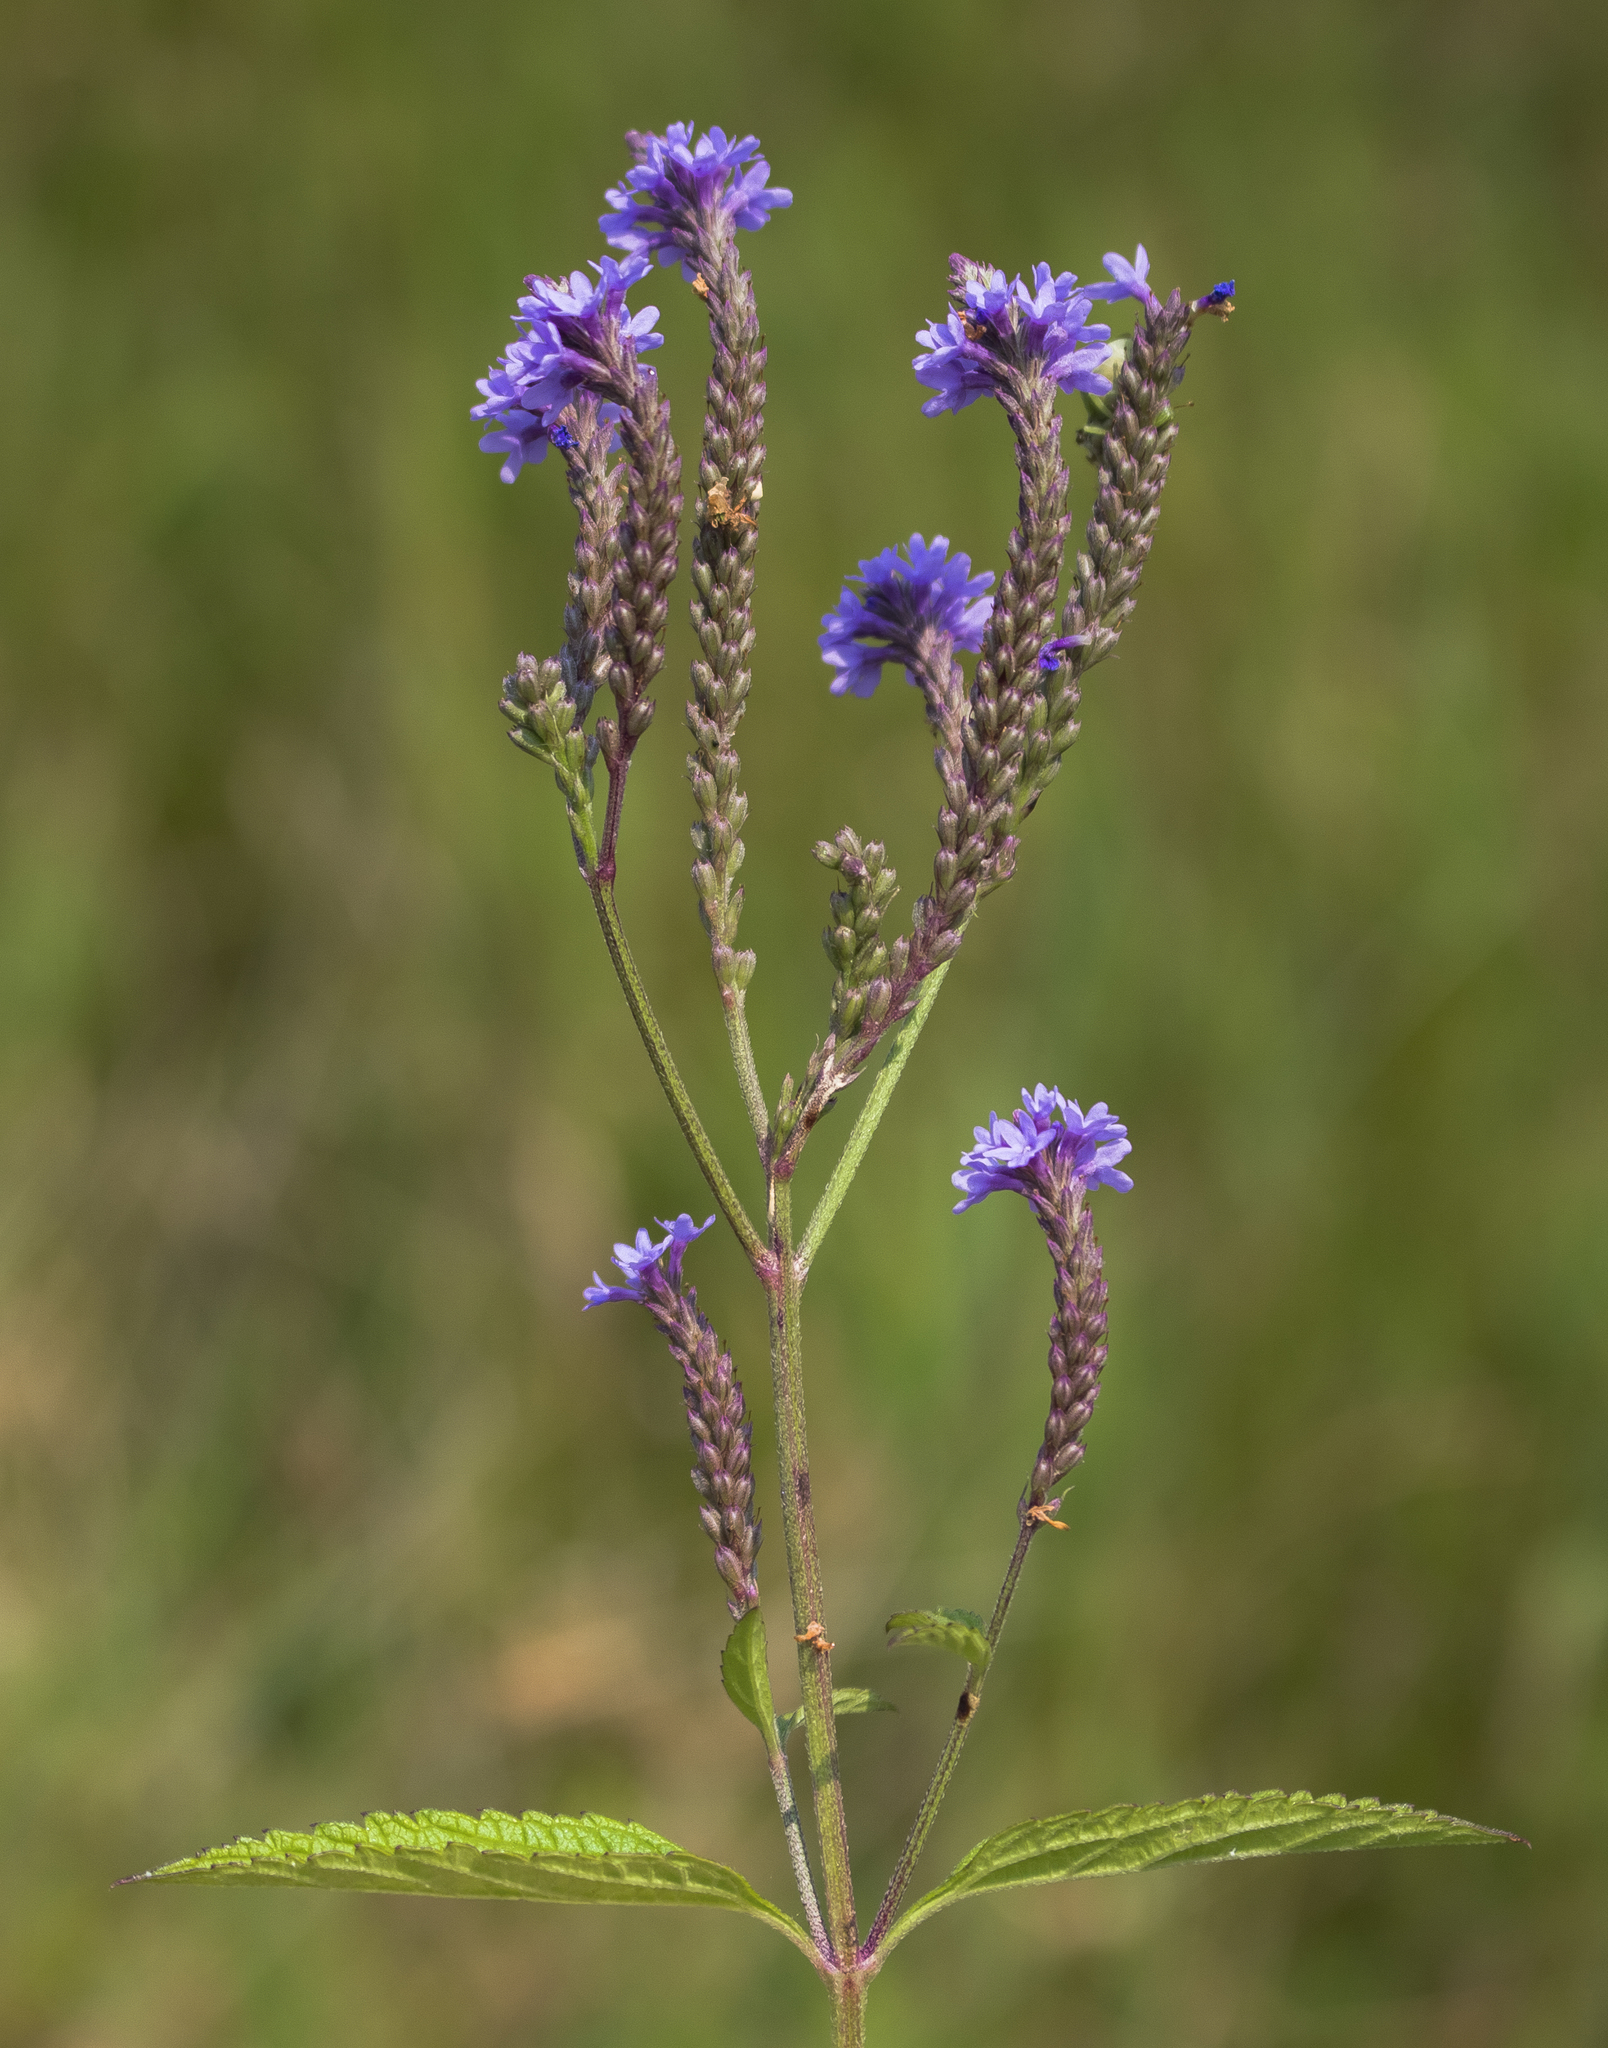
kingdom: Plantae
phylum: Tracheophyta
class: Magnoliopsida
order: Lamiales
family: Verbenaceae
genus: Verbena
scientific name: Verbena hastata
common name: American blue vervain
